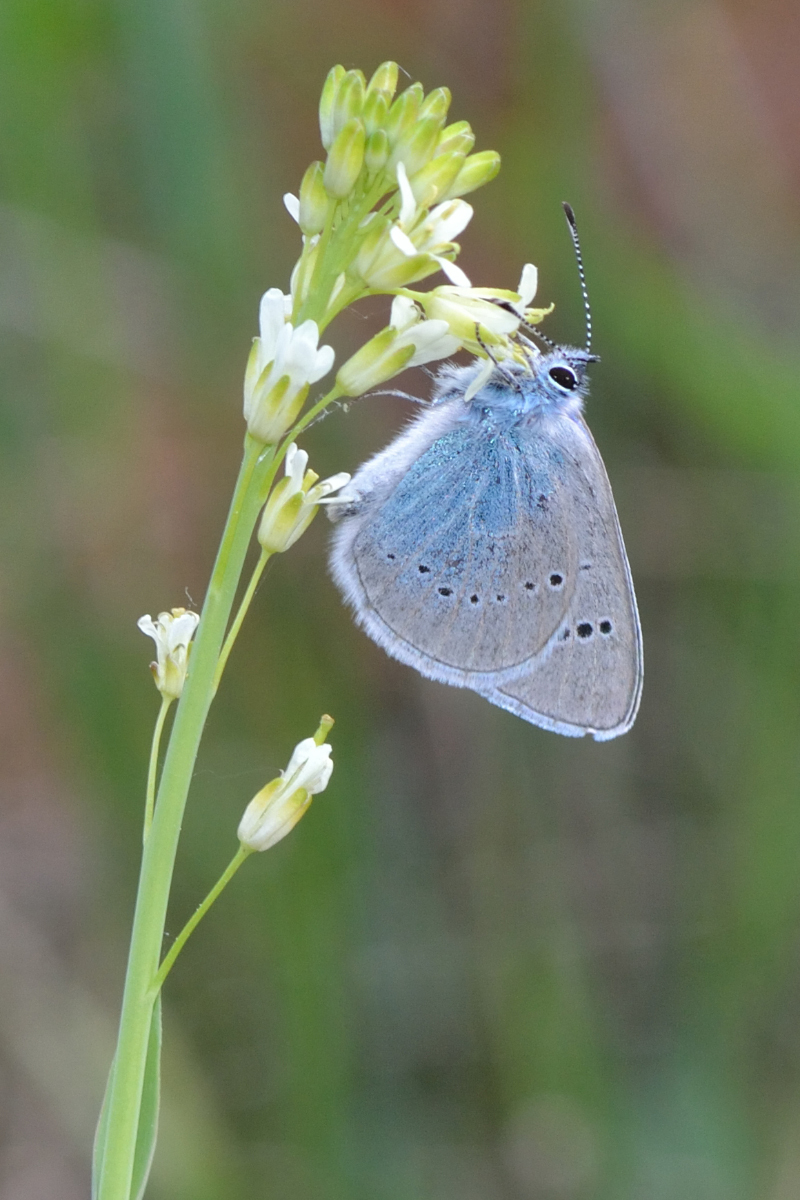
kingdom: Animalia
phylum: Arthropoda
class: Insecta
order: Lepidoptera
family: Lycaenidae
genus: Glaucopsyche
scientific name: Glaucopsyche alexis
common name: Green-underside blue
